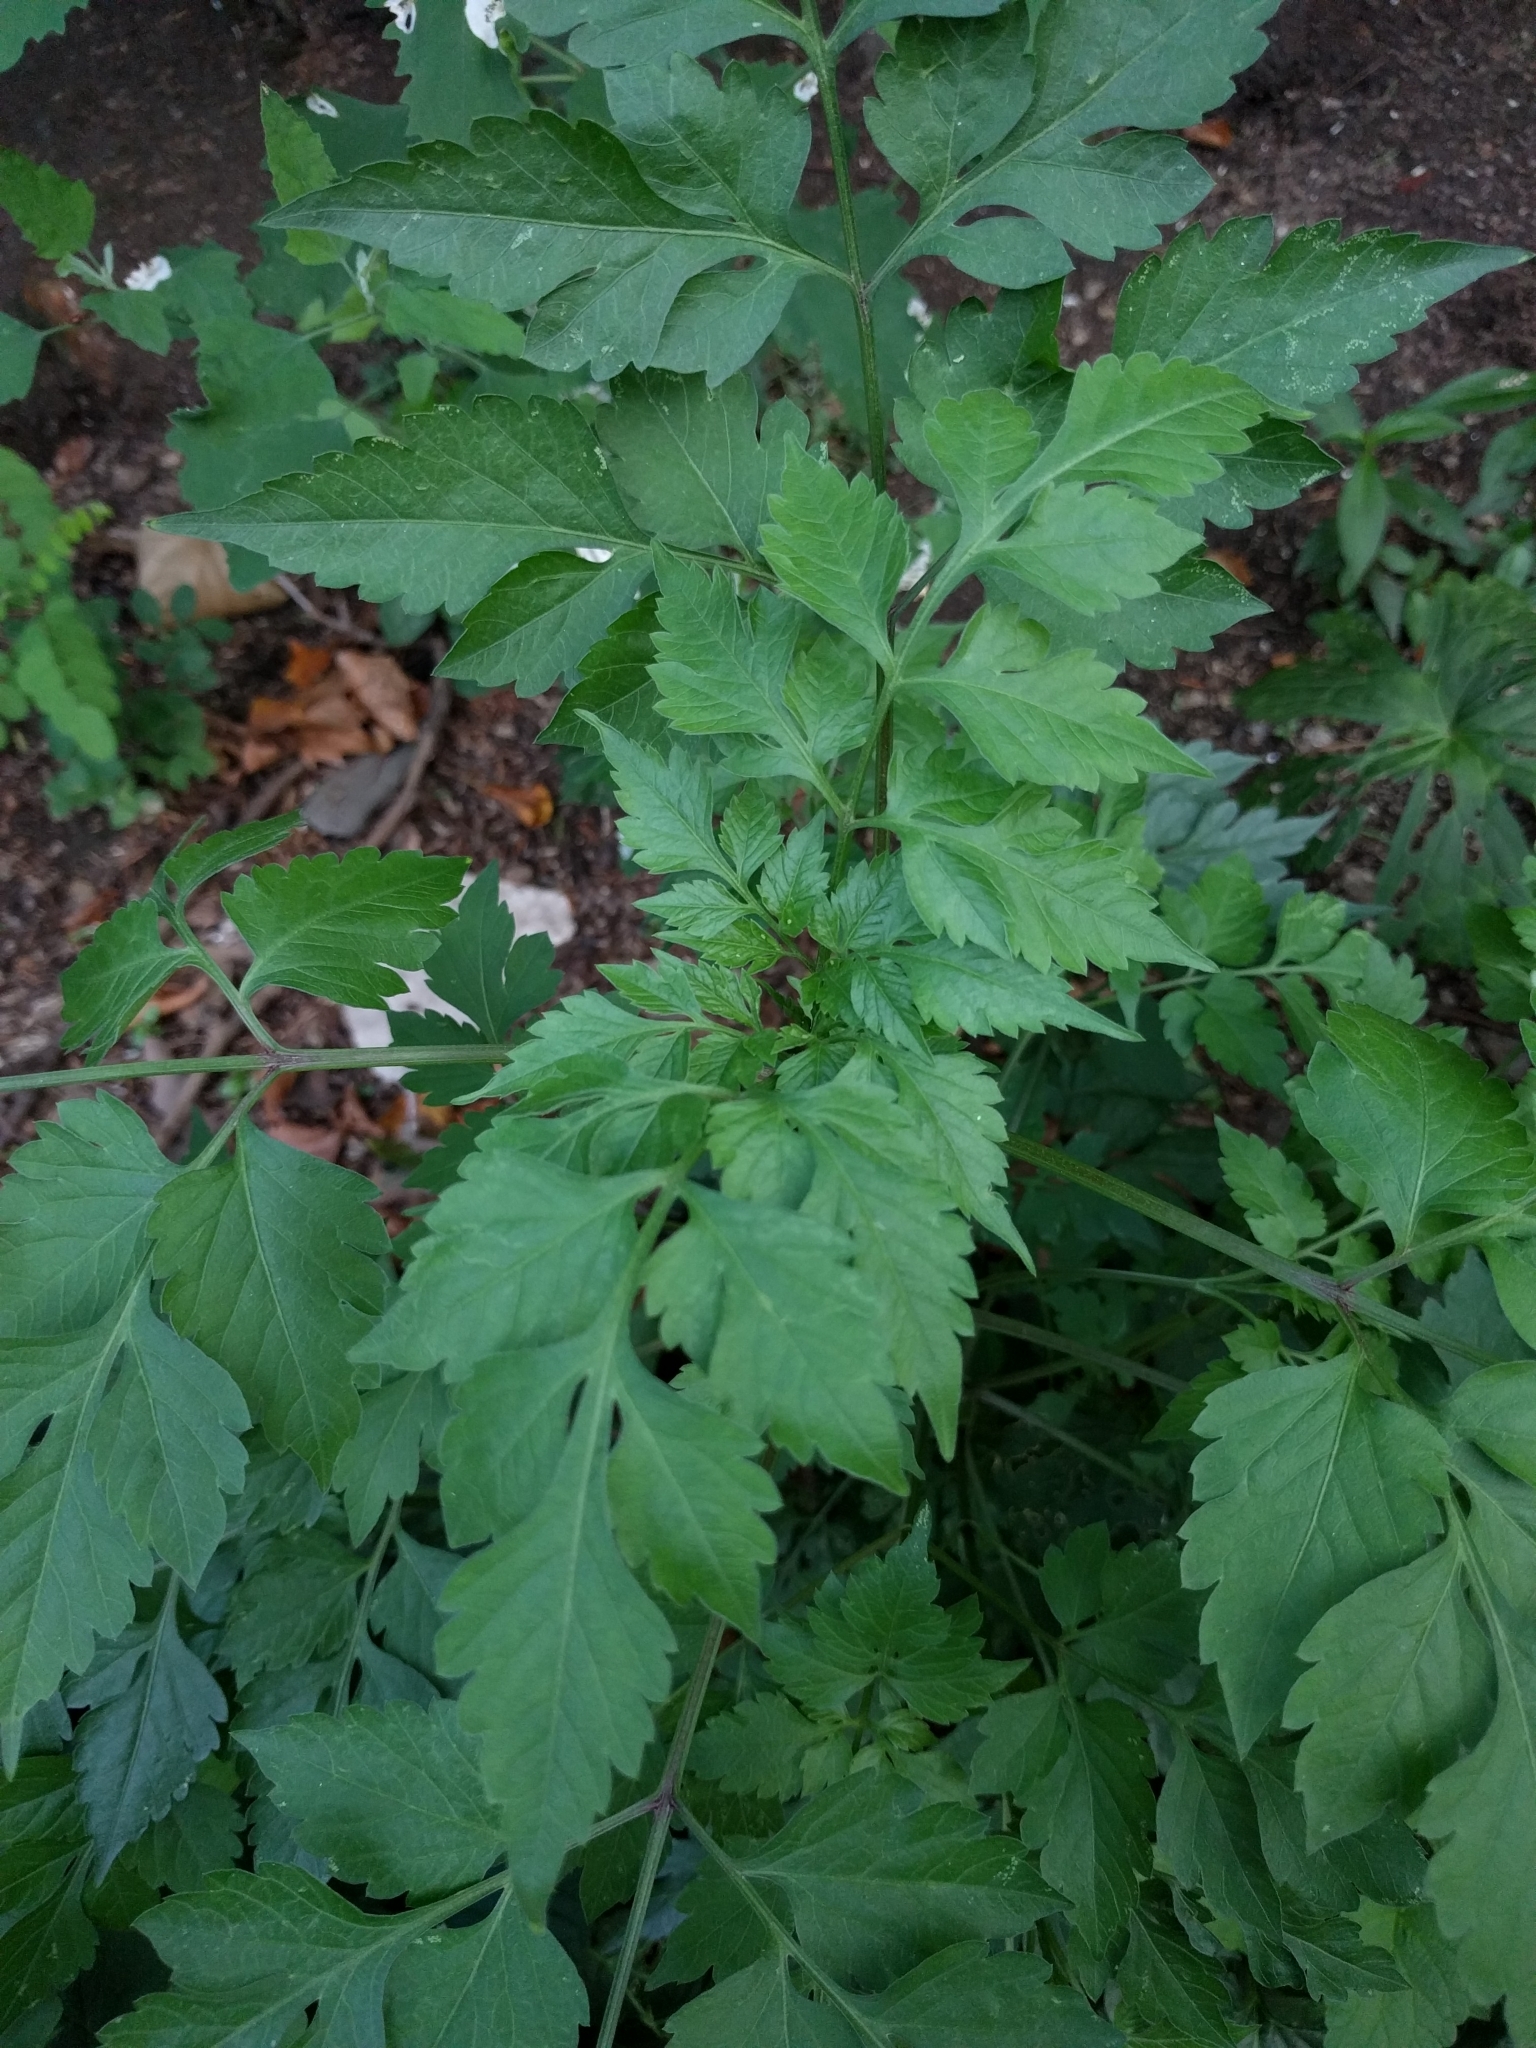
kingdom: Plantae
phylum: Tracheophyta
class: Magnoliopsida
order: Lamiales
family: Bignoniaceae
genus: Campsis
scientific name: Campsis radicans
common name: Trumpet-creeper
